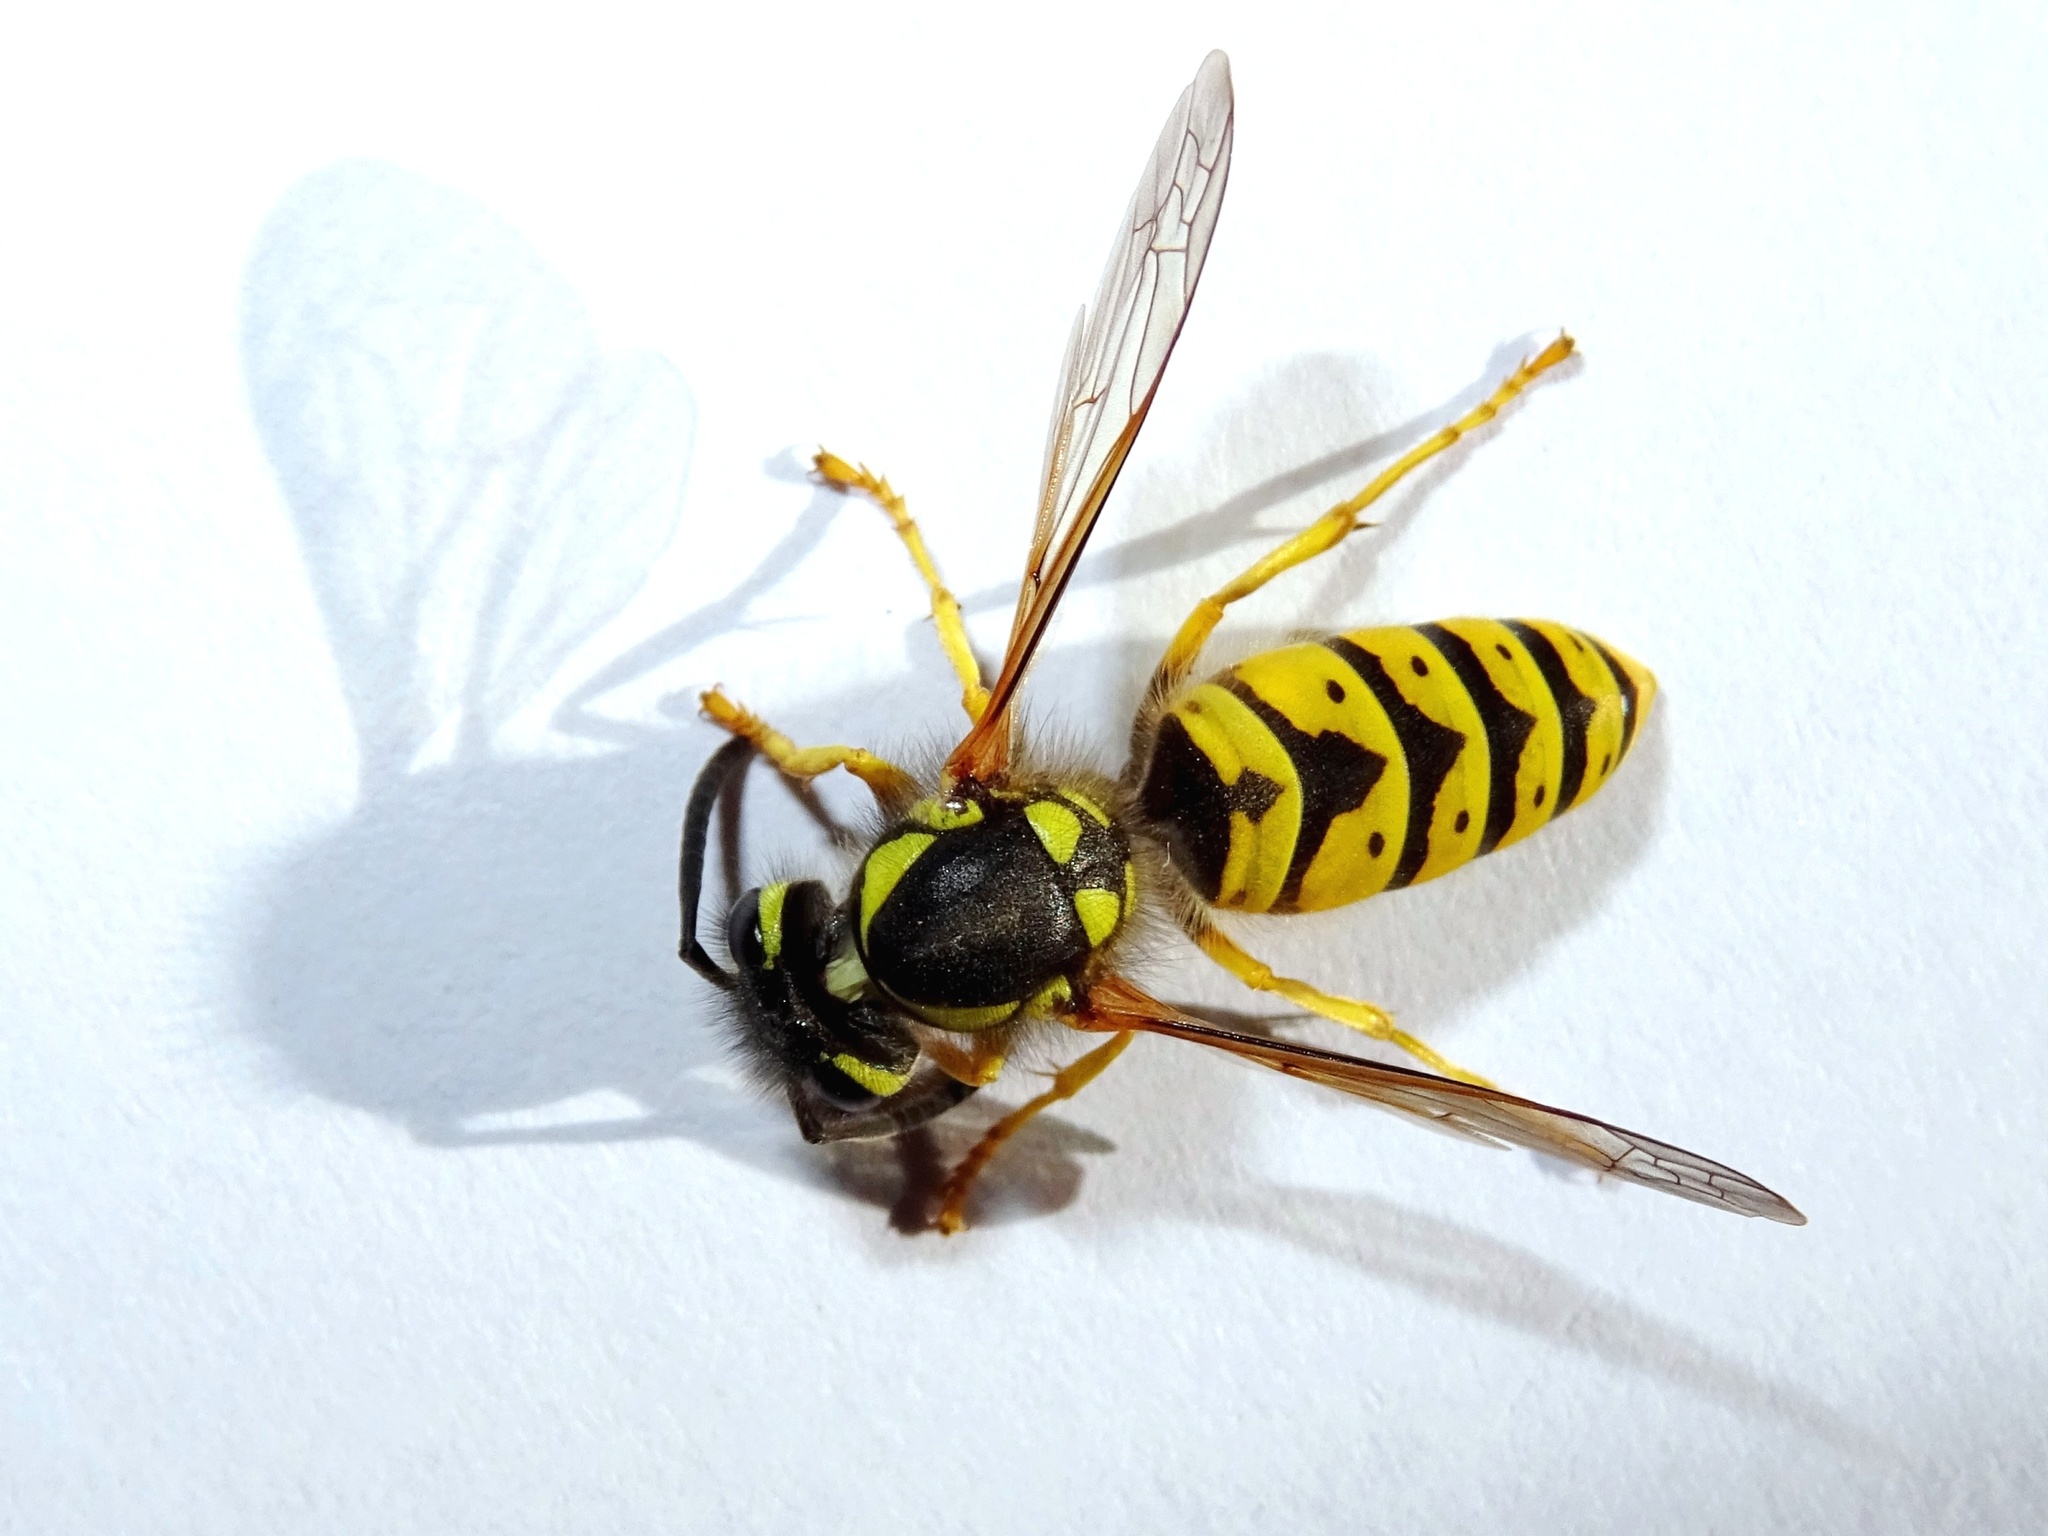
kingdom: Animalia
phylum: Arthropoda
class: Insecta
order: Hymenoptera
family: Vespidae
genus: Vespula
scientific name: Vespula germanica
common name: German wasp
